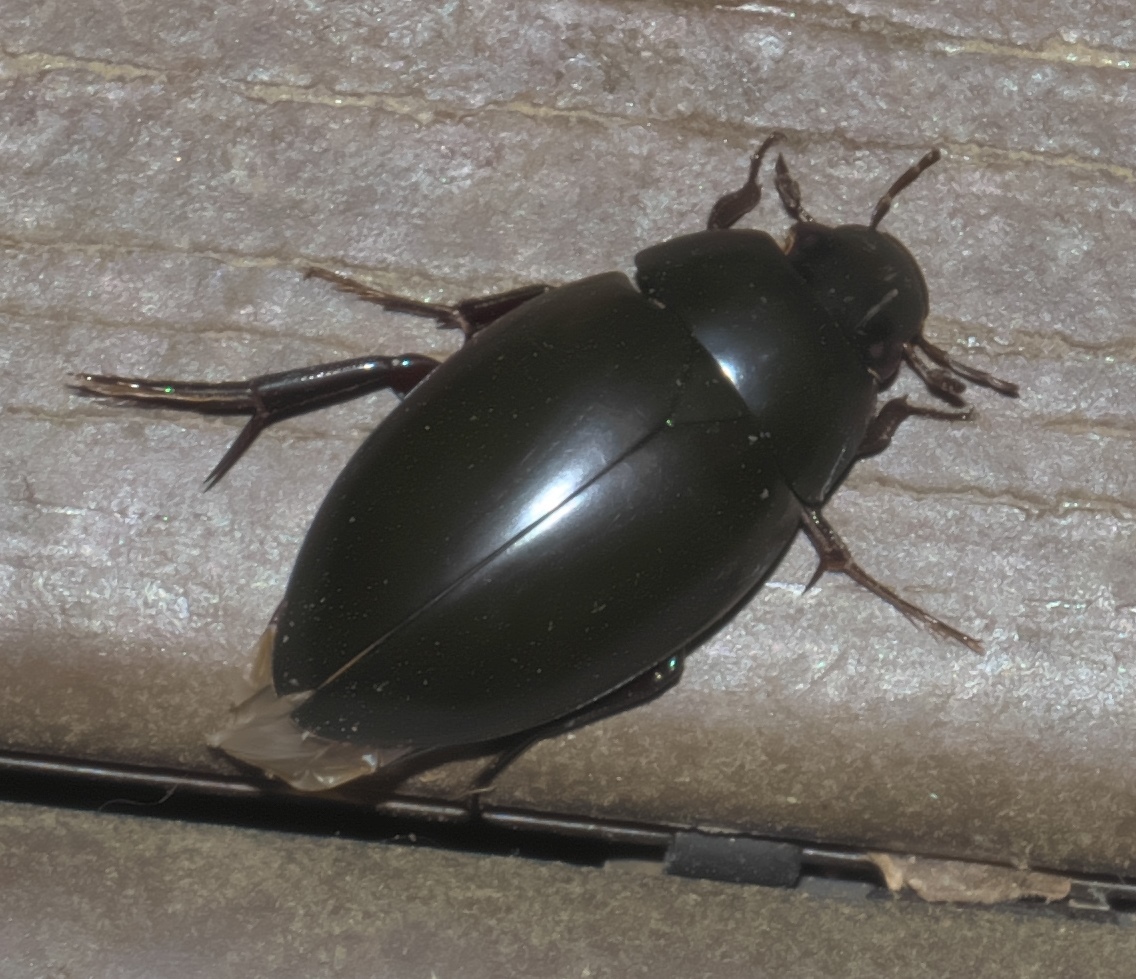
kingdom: Animalia
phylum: Arthropoda
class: Insecta
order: Coleoptera
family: Hydrophilidae
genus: Hydrophilus
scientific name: Hydrophilus ovatus
